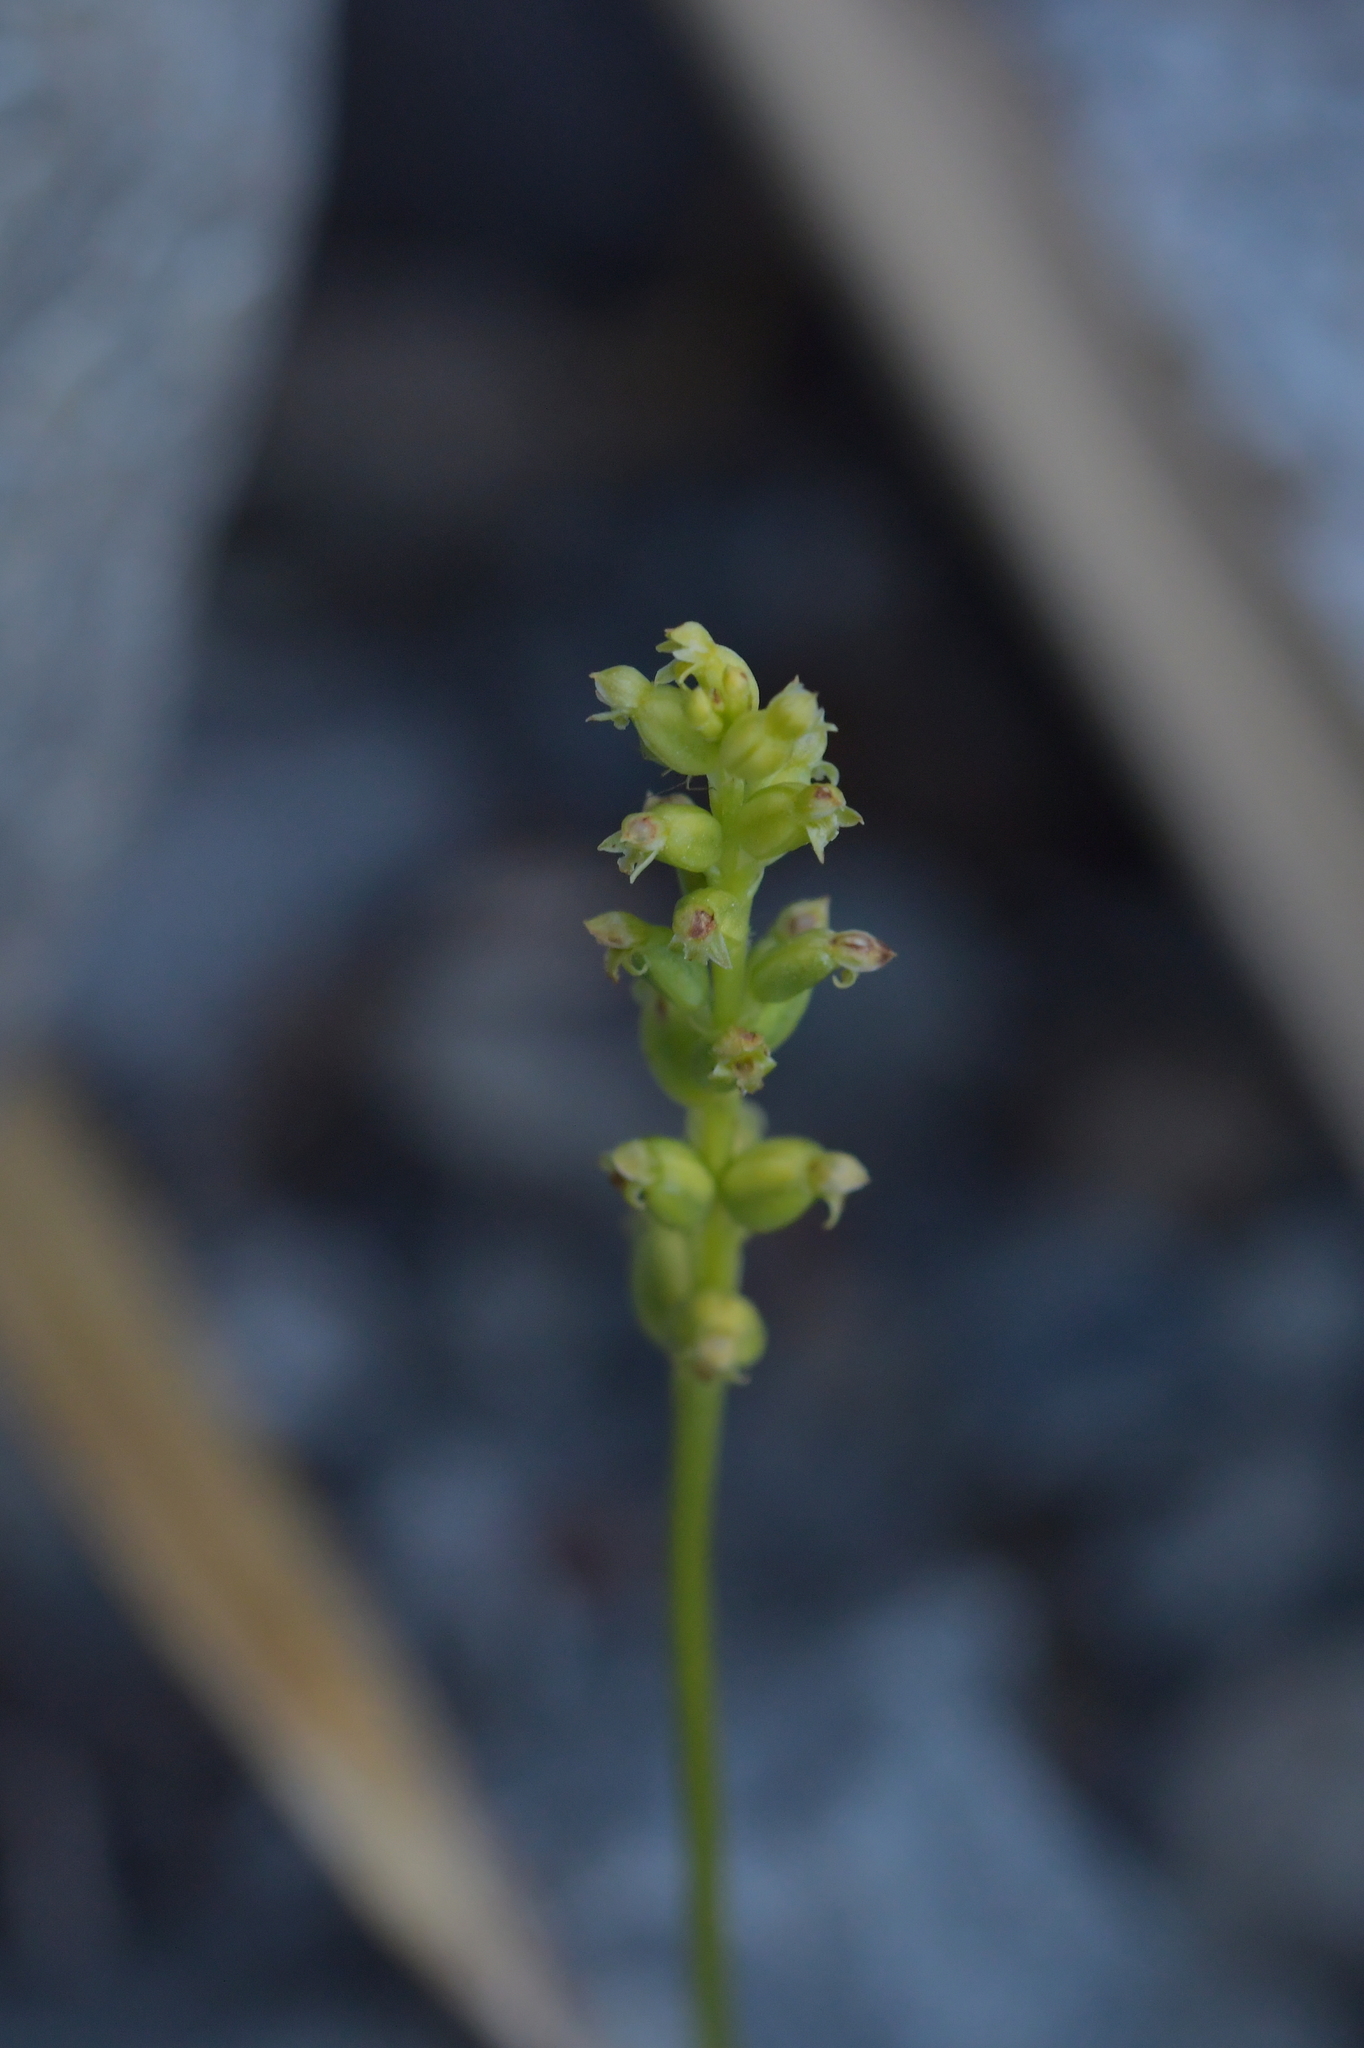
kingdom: Plantae
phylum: Tracheophyta
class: Liliopsida
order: Asparagales
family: Orchidaceae
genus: Microtis
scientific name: Microtis unifolia
